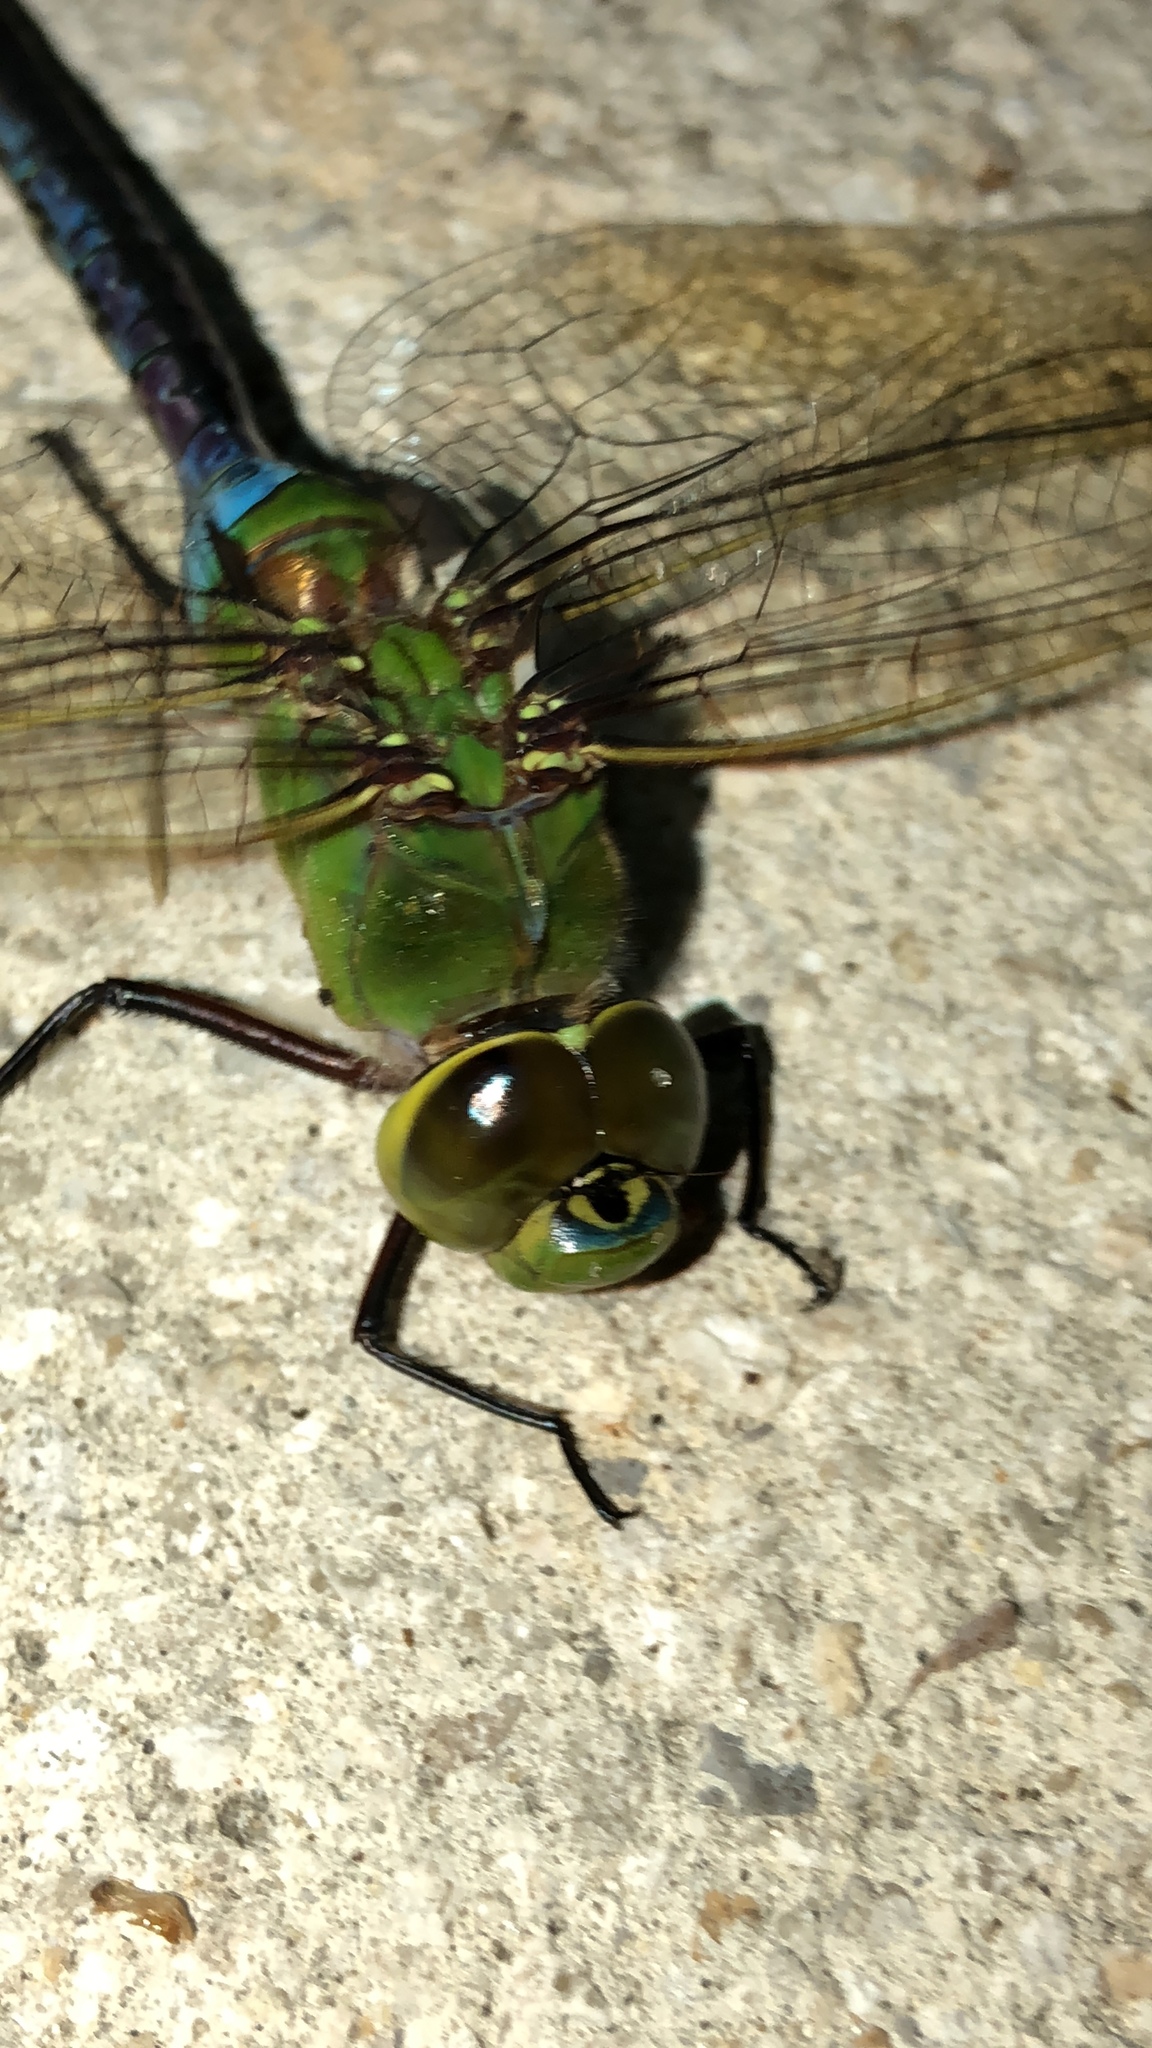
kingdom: Animalia
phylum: Arthropoda
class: Insecta
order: Odonata
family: Aeshnidae
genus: Anax
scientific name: Anax junius
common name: Common green darner
